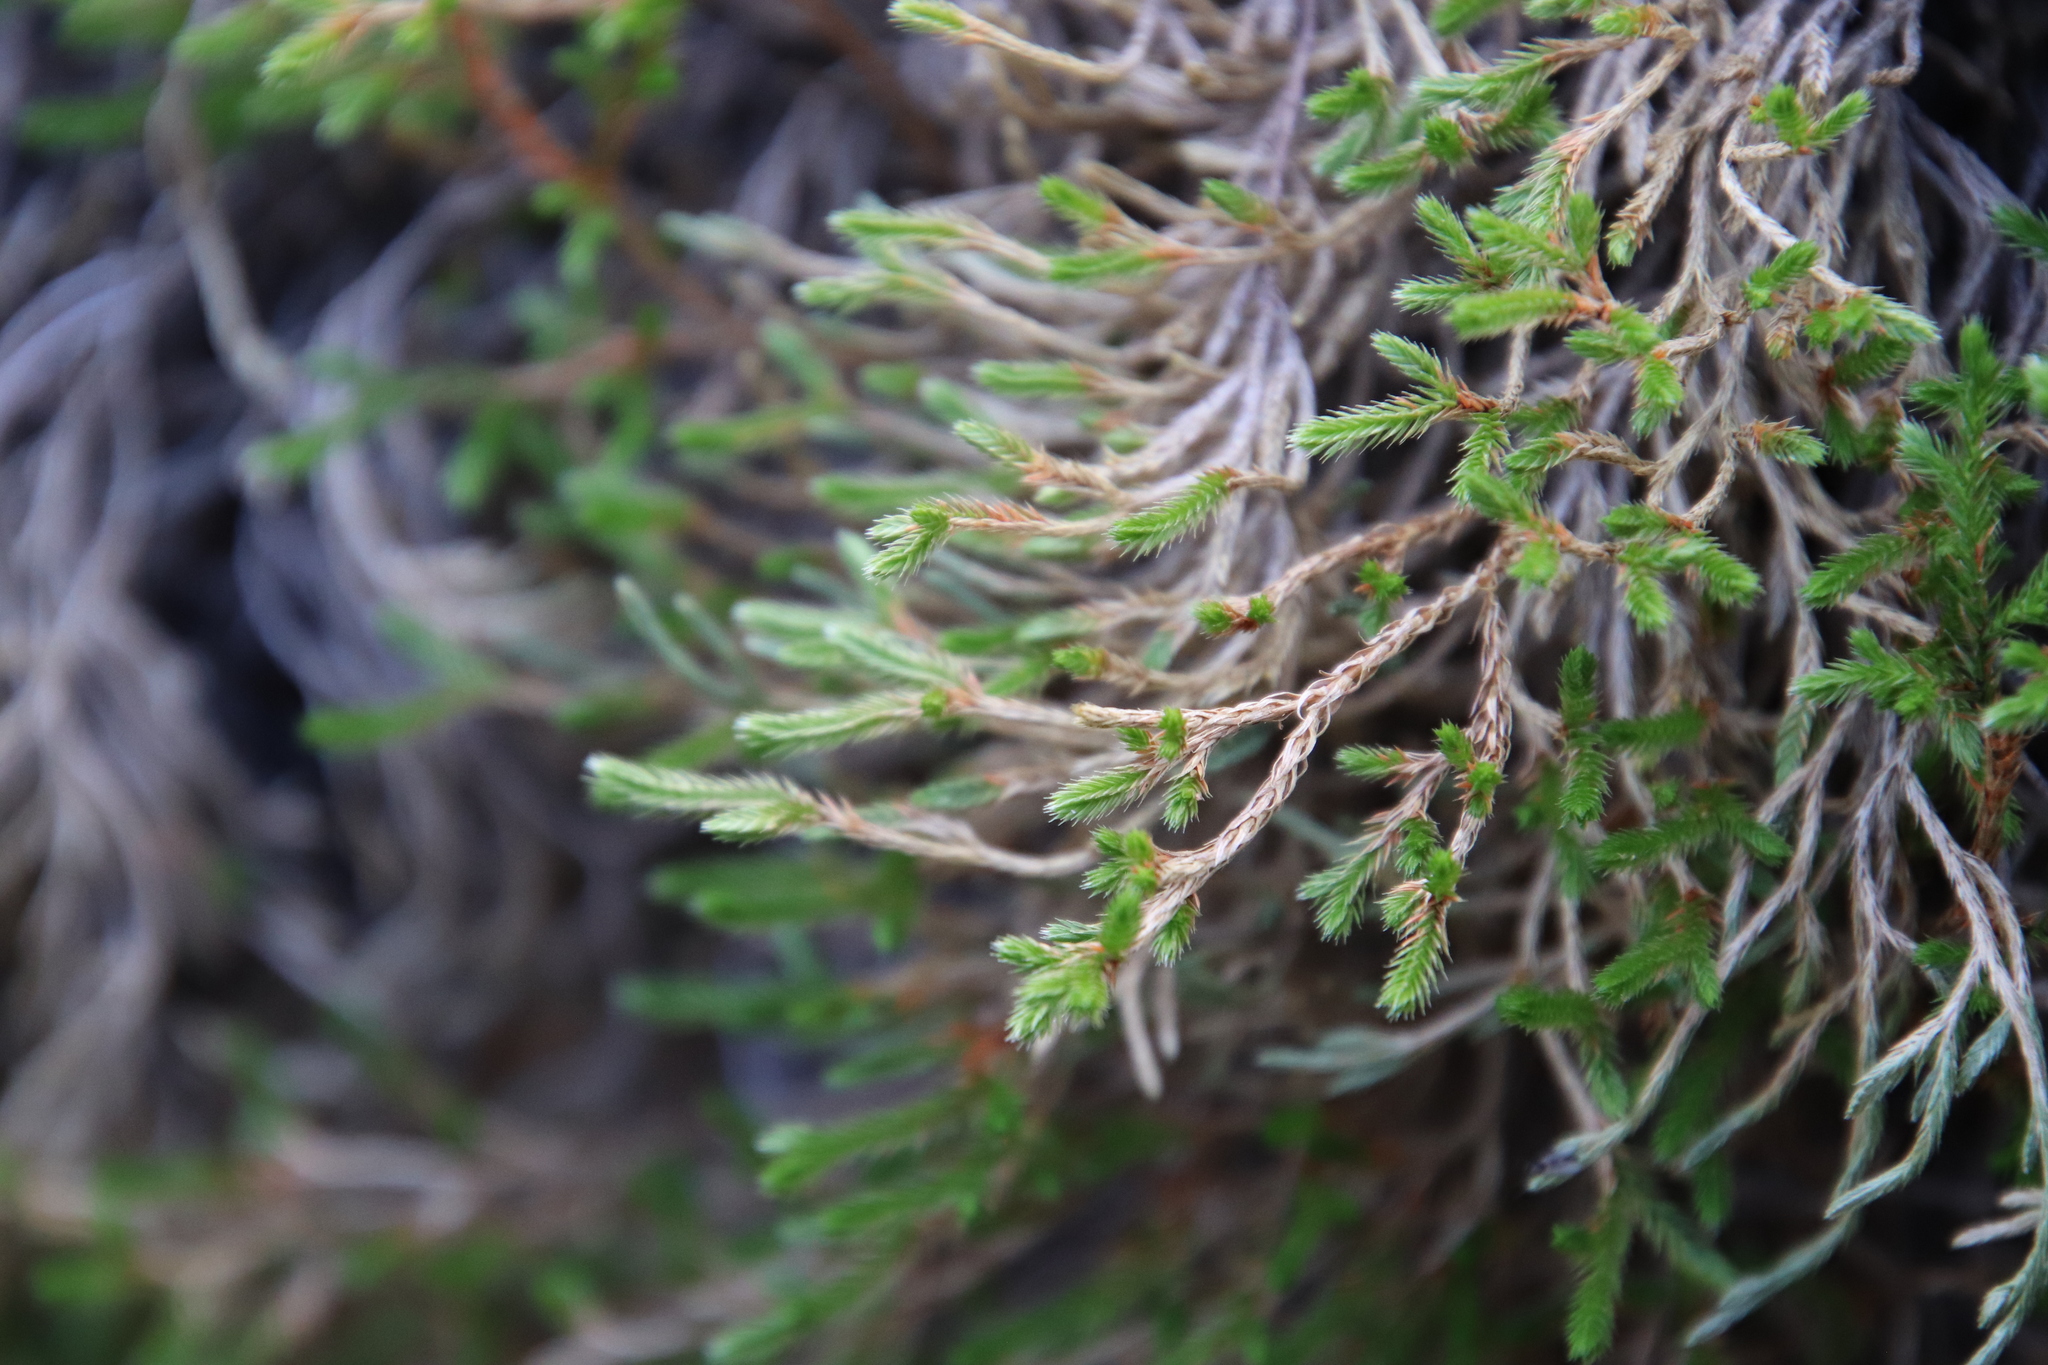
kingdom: Plantae
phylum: Tracheophyta
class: Lycopodiopsida
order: Selaginellales
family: Selaginellaceae
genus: Selaginella
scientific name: Selaginella bigelovii
